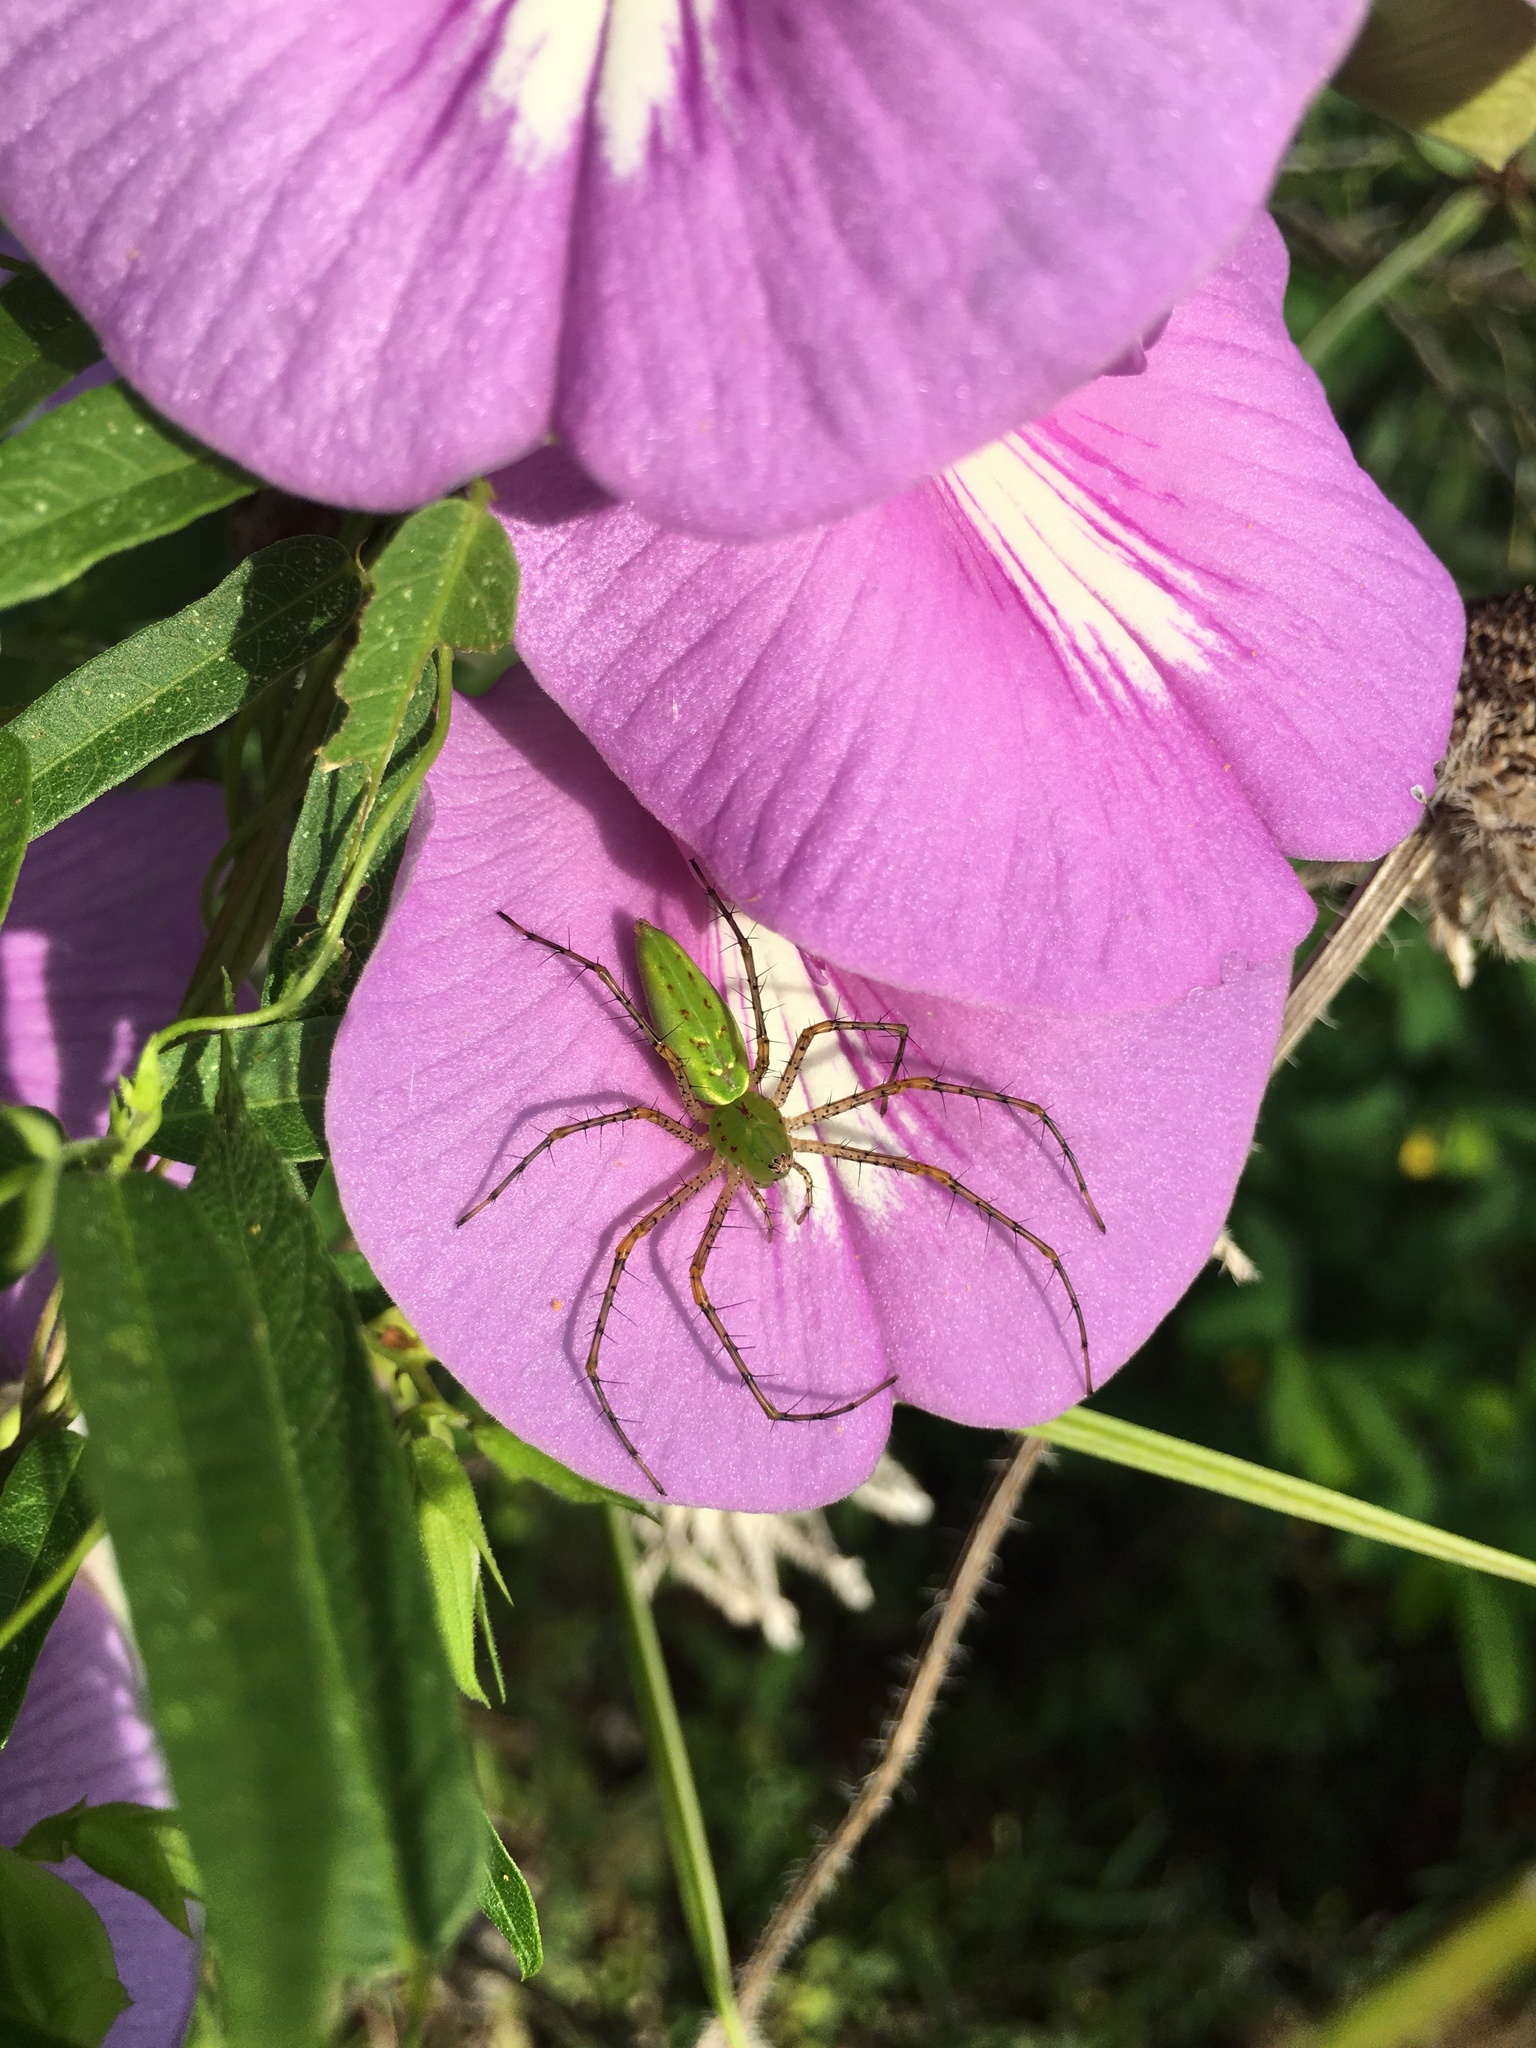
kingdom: Animalia
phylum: Arthropoda
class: Arachnida
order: Araneae
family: Oxyopidae
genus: Peucetia
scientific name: Peucetia viridans
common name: Lynx spiders
